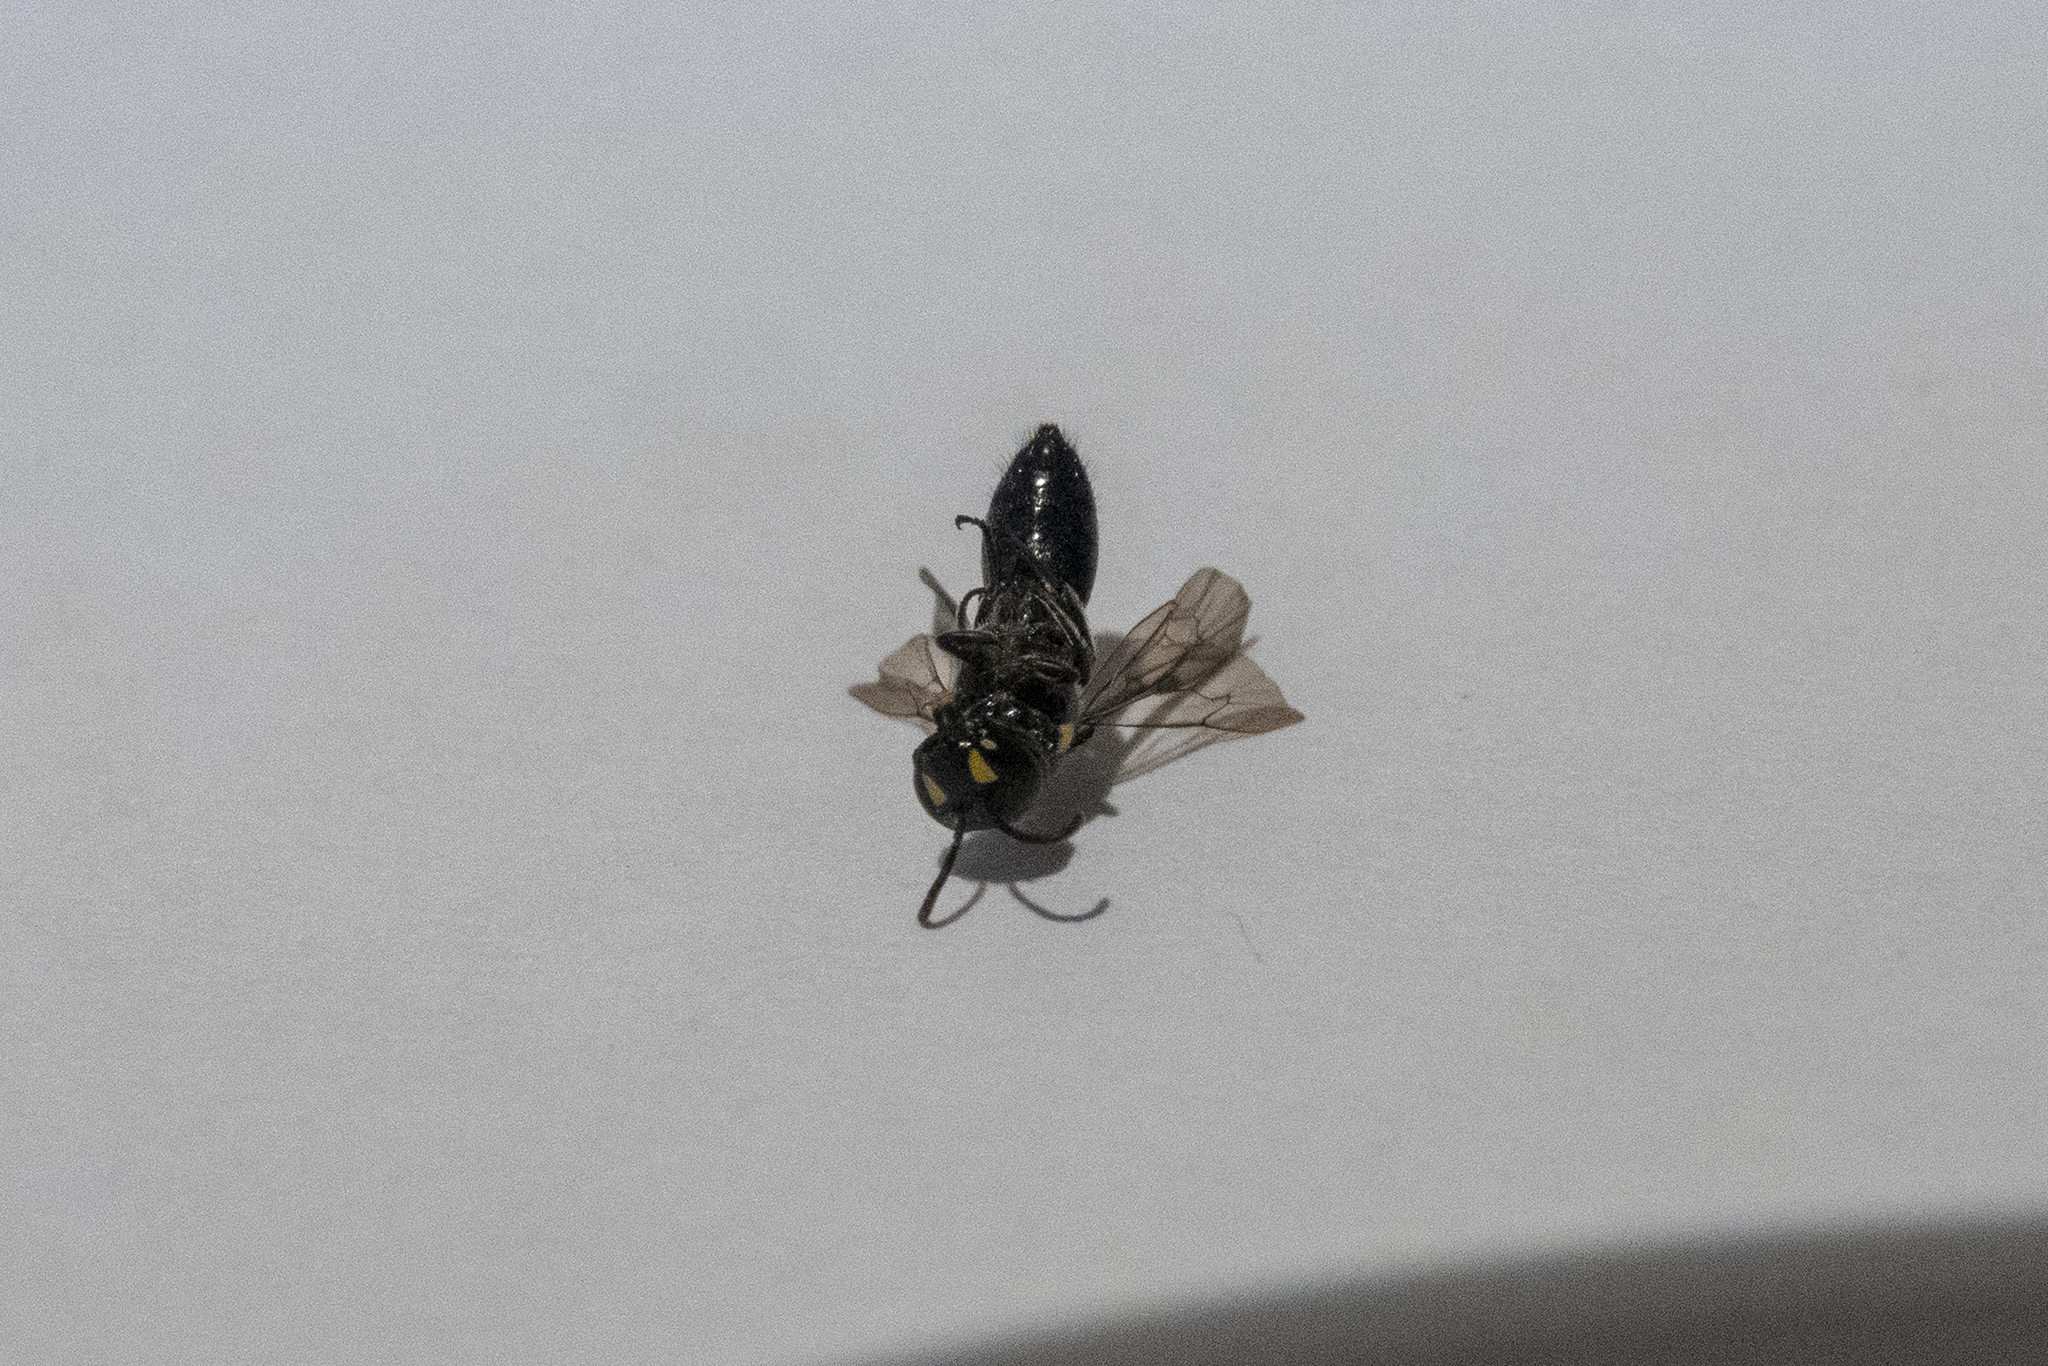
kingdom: Animalia
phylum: Arthropoda
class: Insecta
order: Hymenoptera
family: Colletidae
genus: Hylaeus
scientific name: Hylaeus agilis
